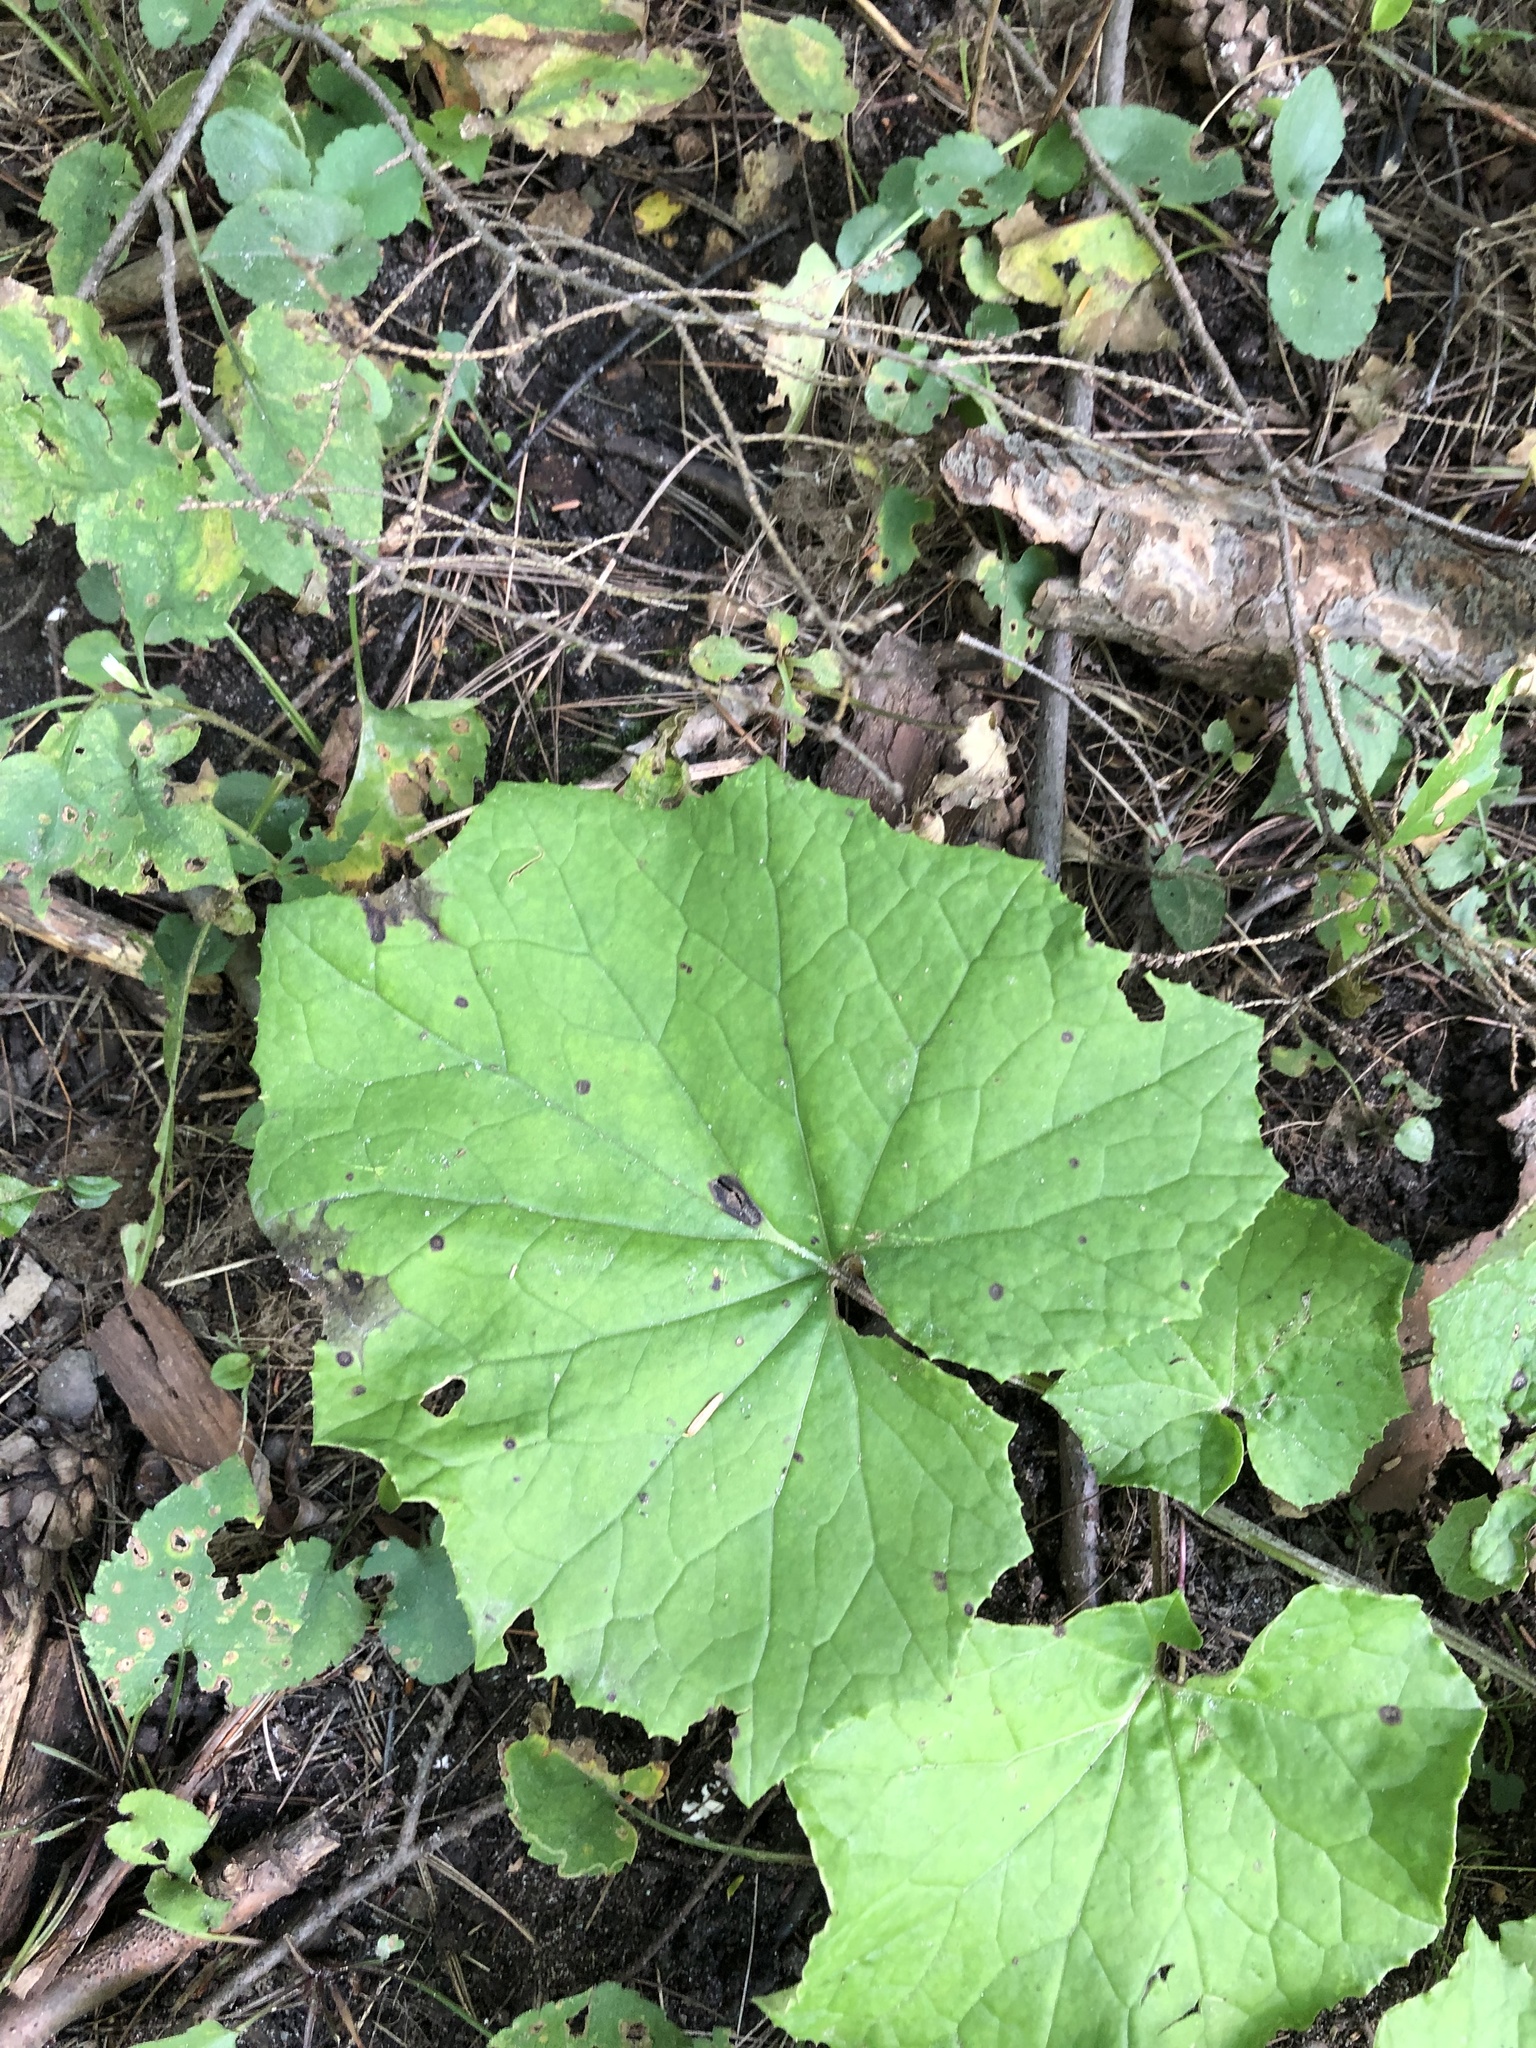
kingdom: Plantae
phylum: Tracheophyta
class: Magnoliopsida
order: Asterales
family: Asteraceae
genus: Tussilago
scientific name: Tussilago farfara
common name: Coltsfoot
